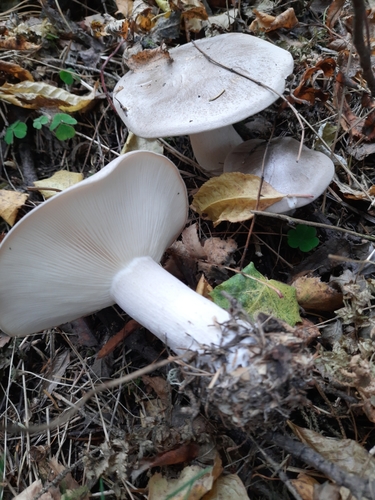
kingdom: Fungi
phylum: Basidiomycota
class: Agaricomycetes
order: Agaricales
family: Tricholomataceae
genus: Clitocybe
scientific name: Clitocybe nebularis
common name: Clouded agaric
